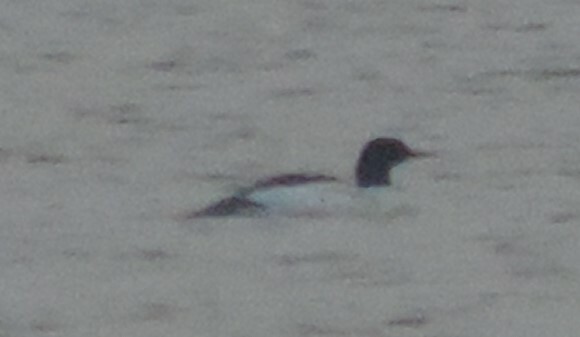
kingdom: Animalia
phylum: Chordata
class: Aves
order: Anseriformes
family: Anatidae
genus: Mergus
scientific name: Mergus merganser
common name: Common merganser
